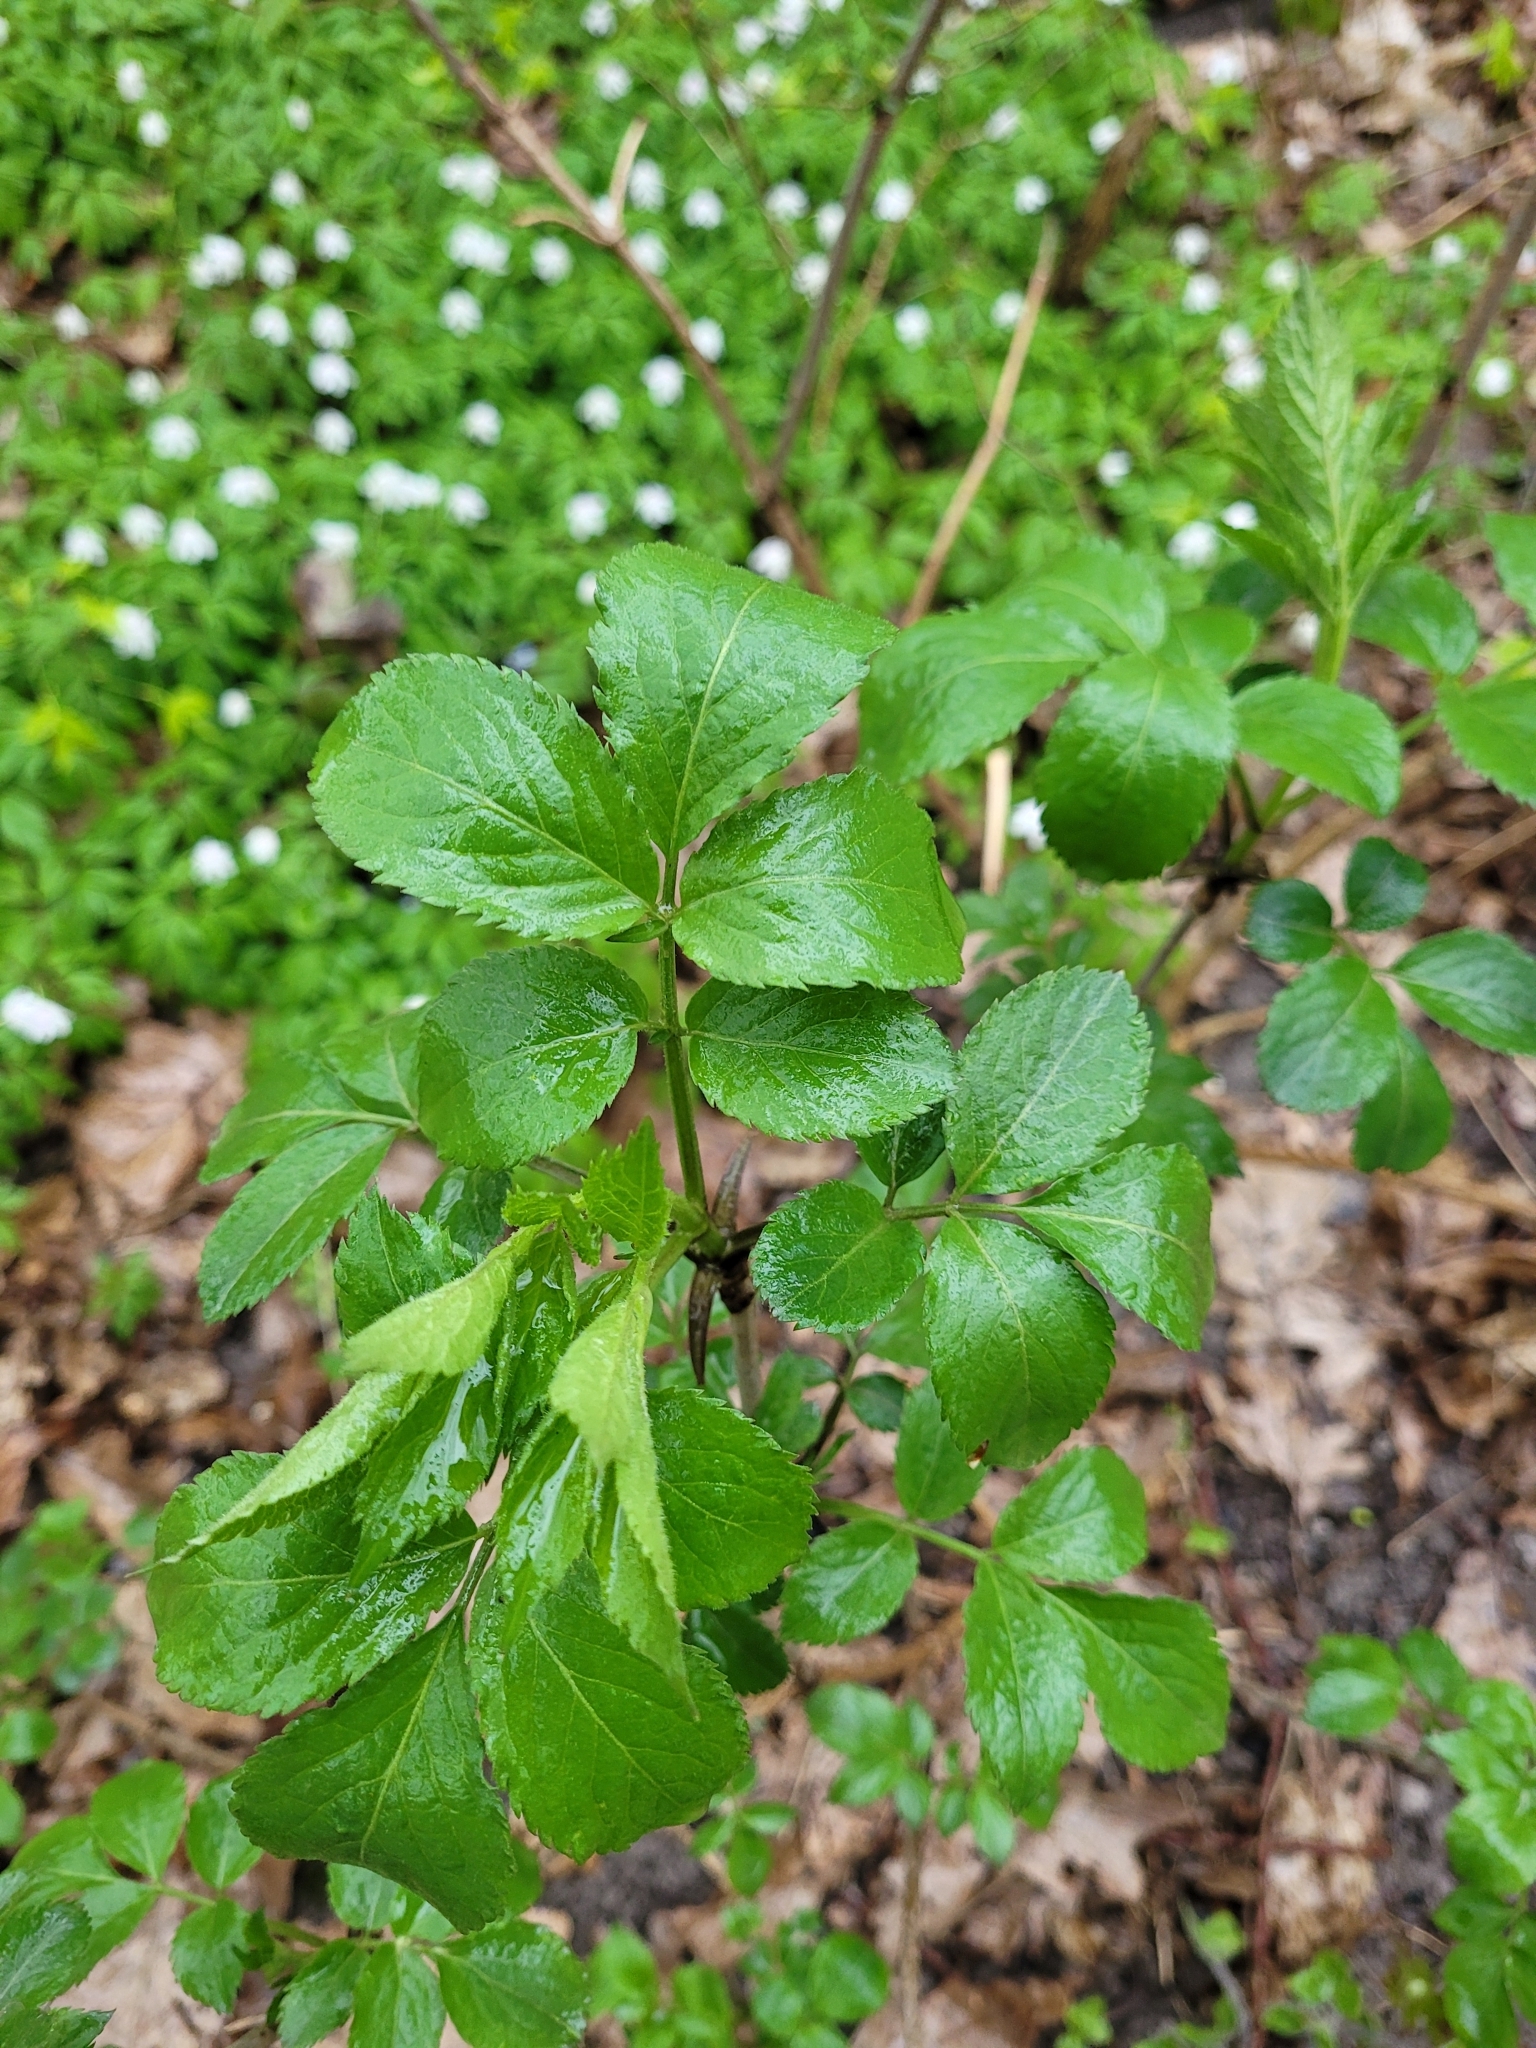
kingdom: Plantae
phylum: Tracheophyta
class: Magnoliopsida
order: Dipsacales
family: Viburnaceae
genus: Sambucus
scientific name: Sambucus nigra
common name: Elder
